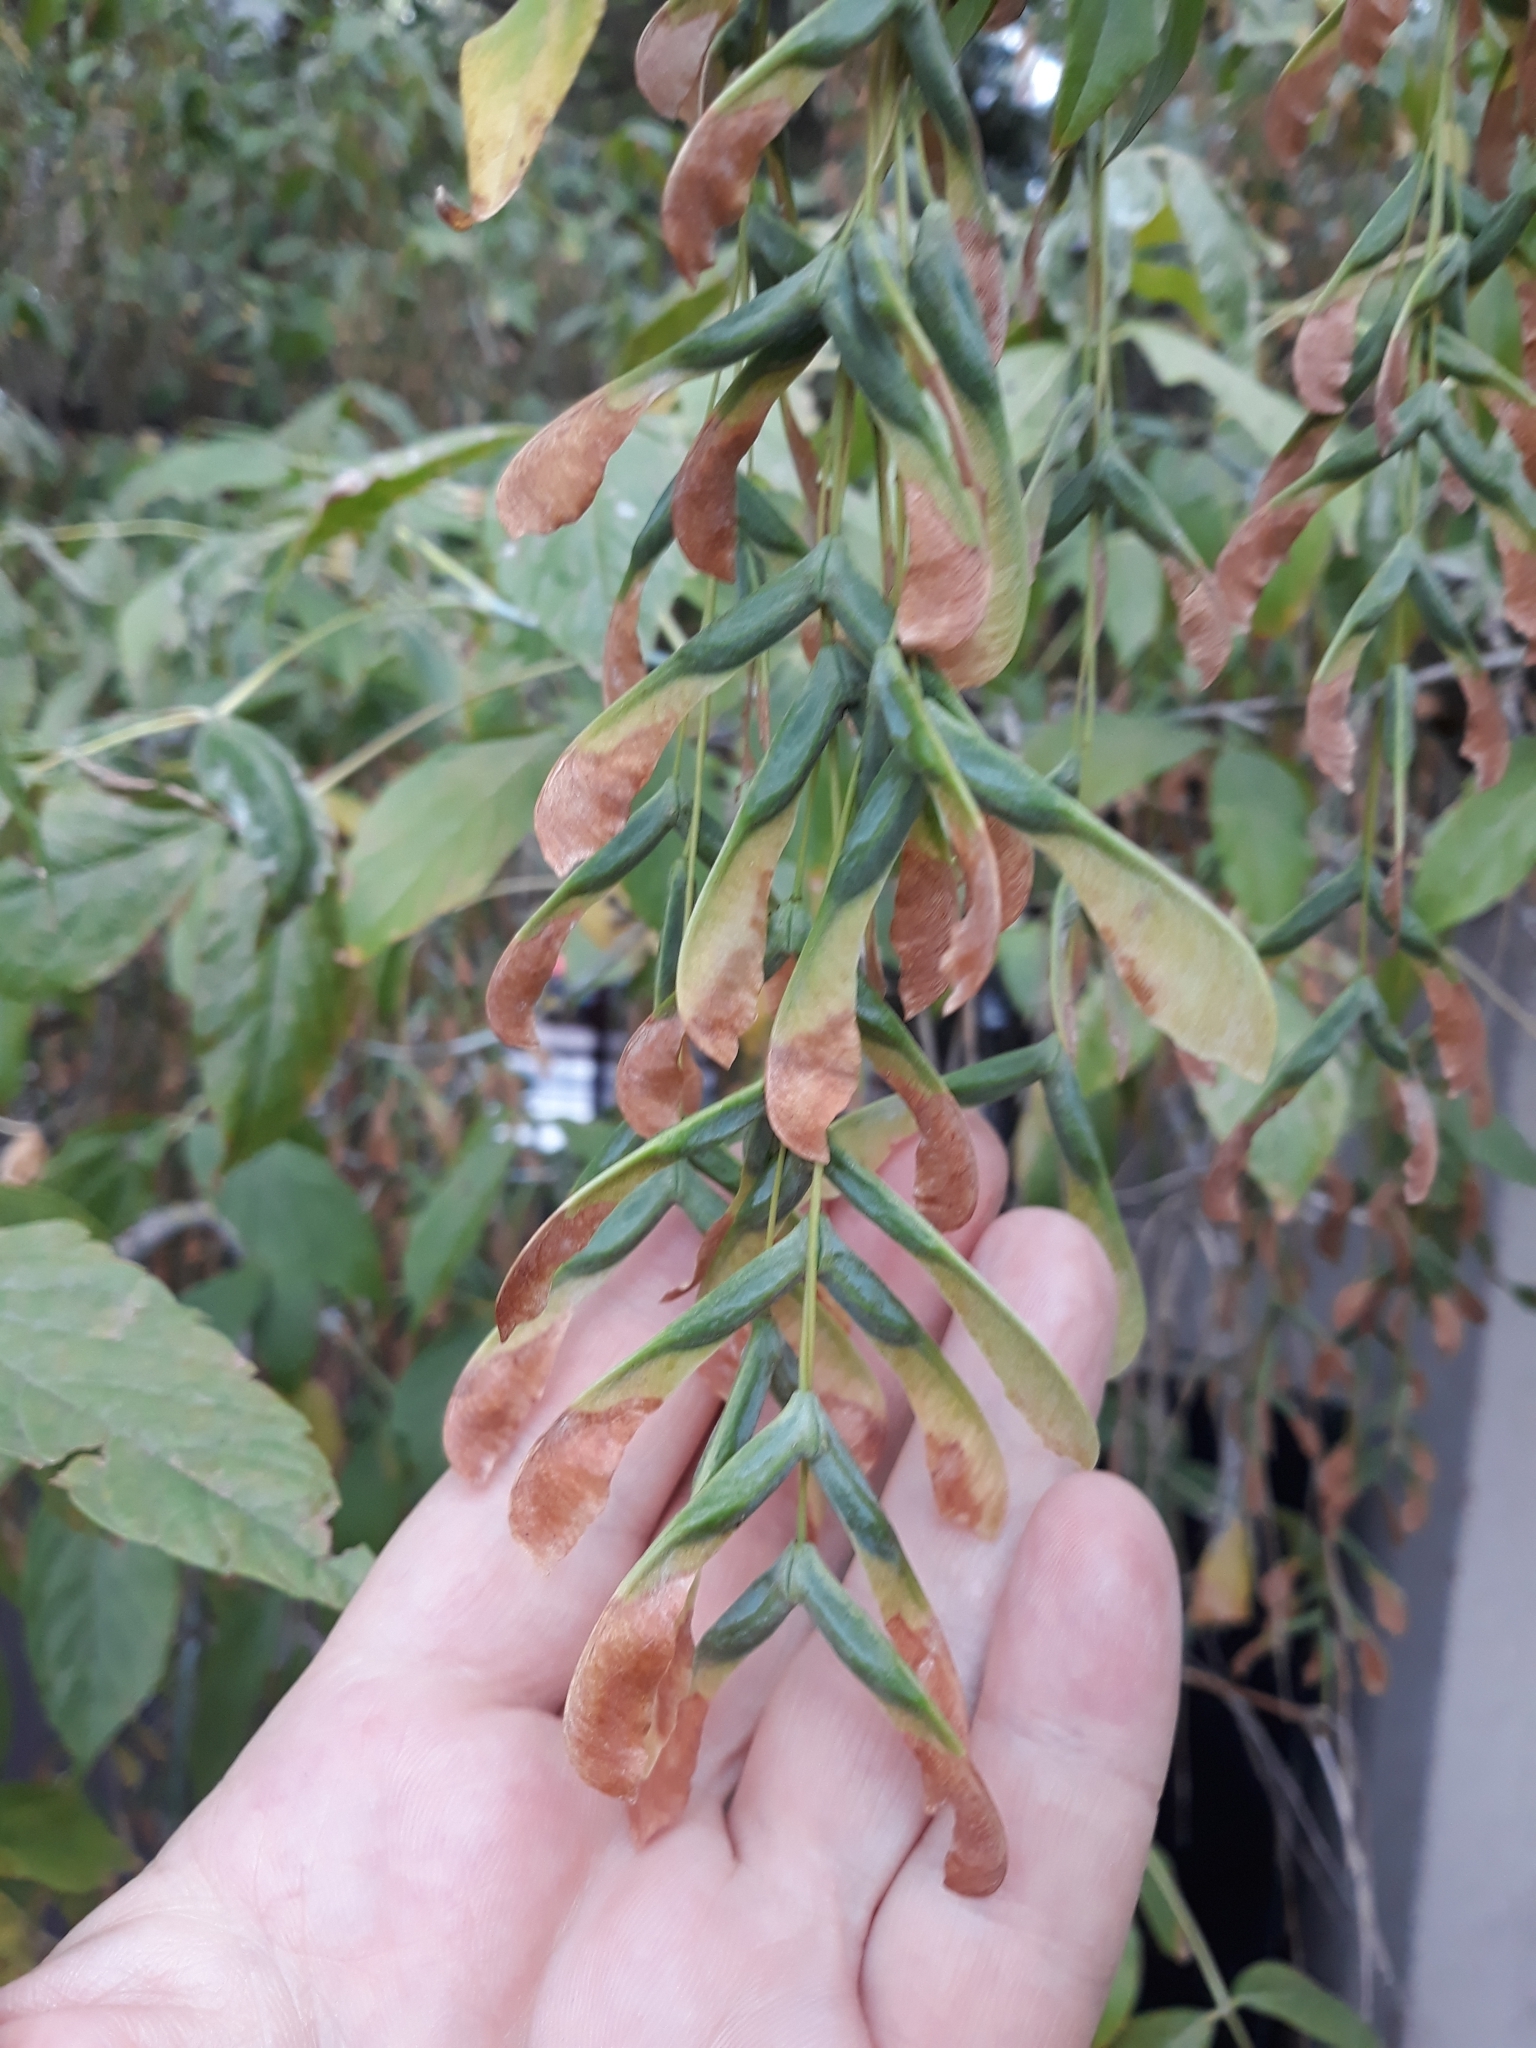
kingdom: Plantae
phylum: Tracheophyta
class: Magnoliopsida
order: Sapindales
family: Sapindaceae
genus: Acer
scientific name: Acer negundo
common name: Ashleaf maple
